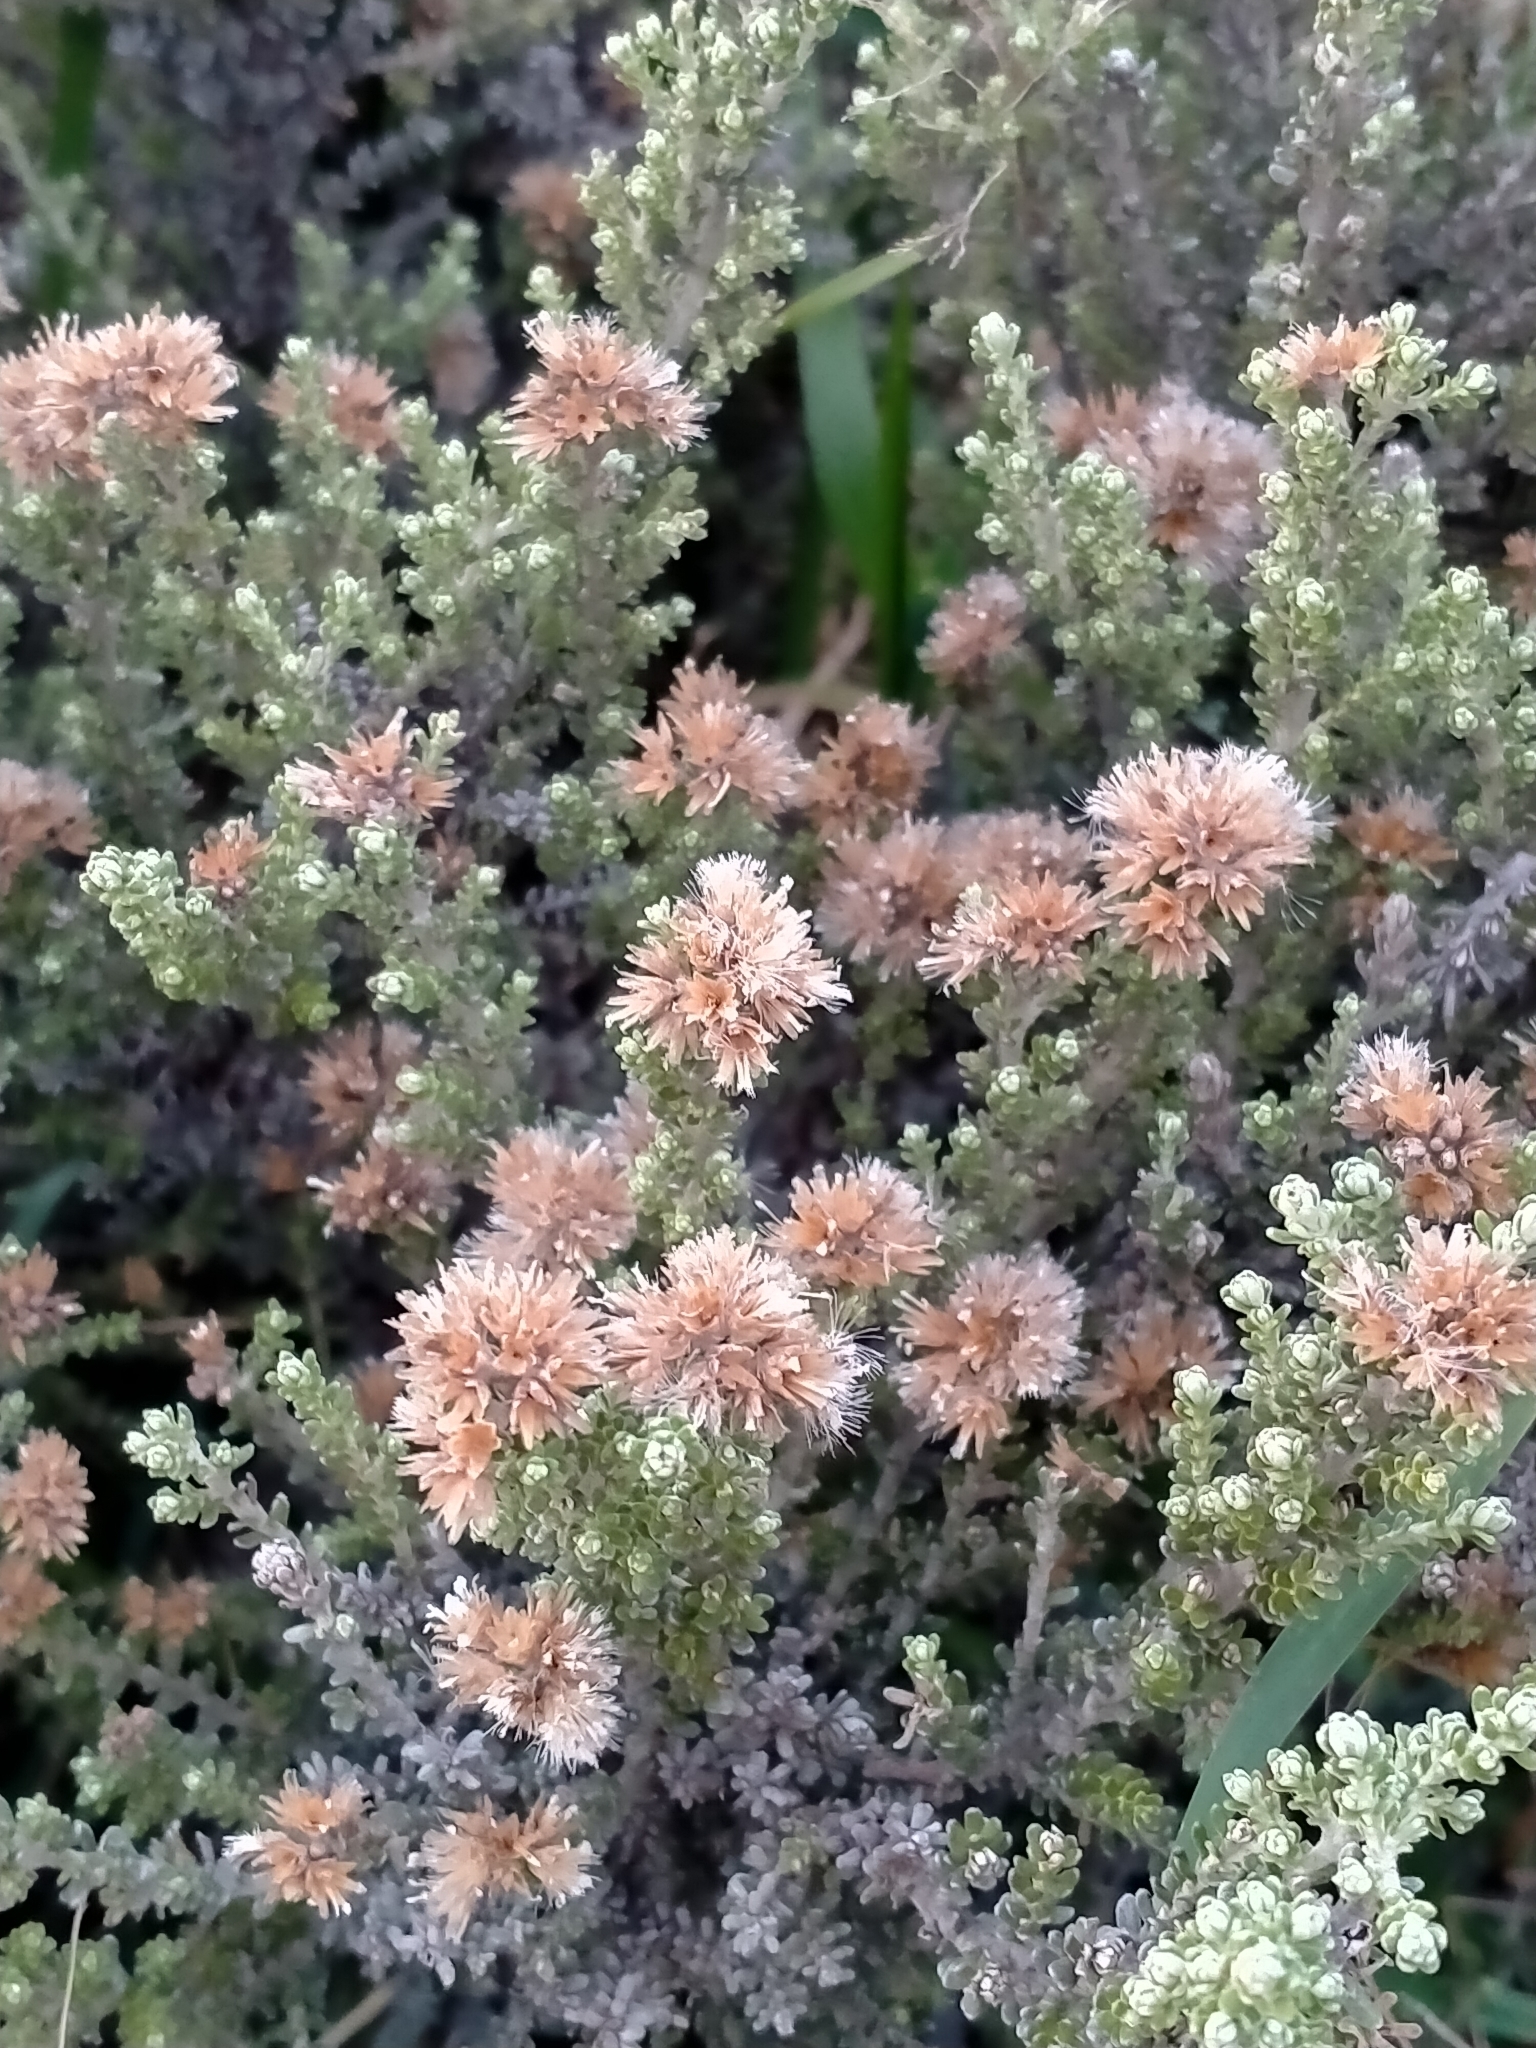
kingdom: Plantae
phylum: Tracheophyta
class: Magnoliopsida
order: Asterales
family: Asteraceae
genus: Ozothamnus
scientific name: Ozothamnus leptophyllus
